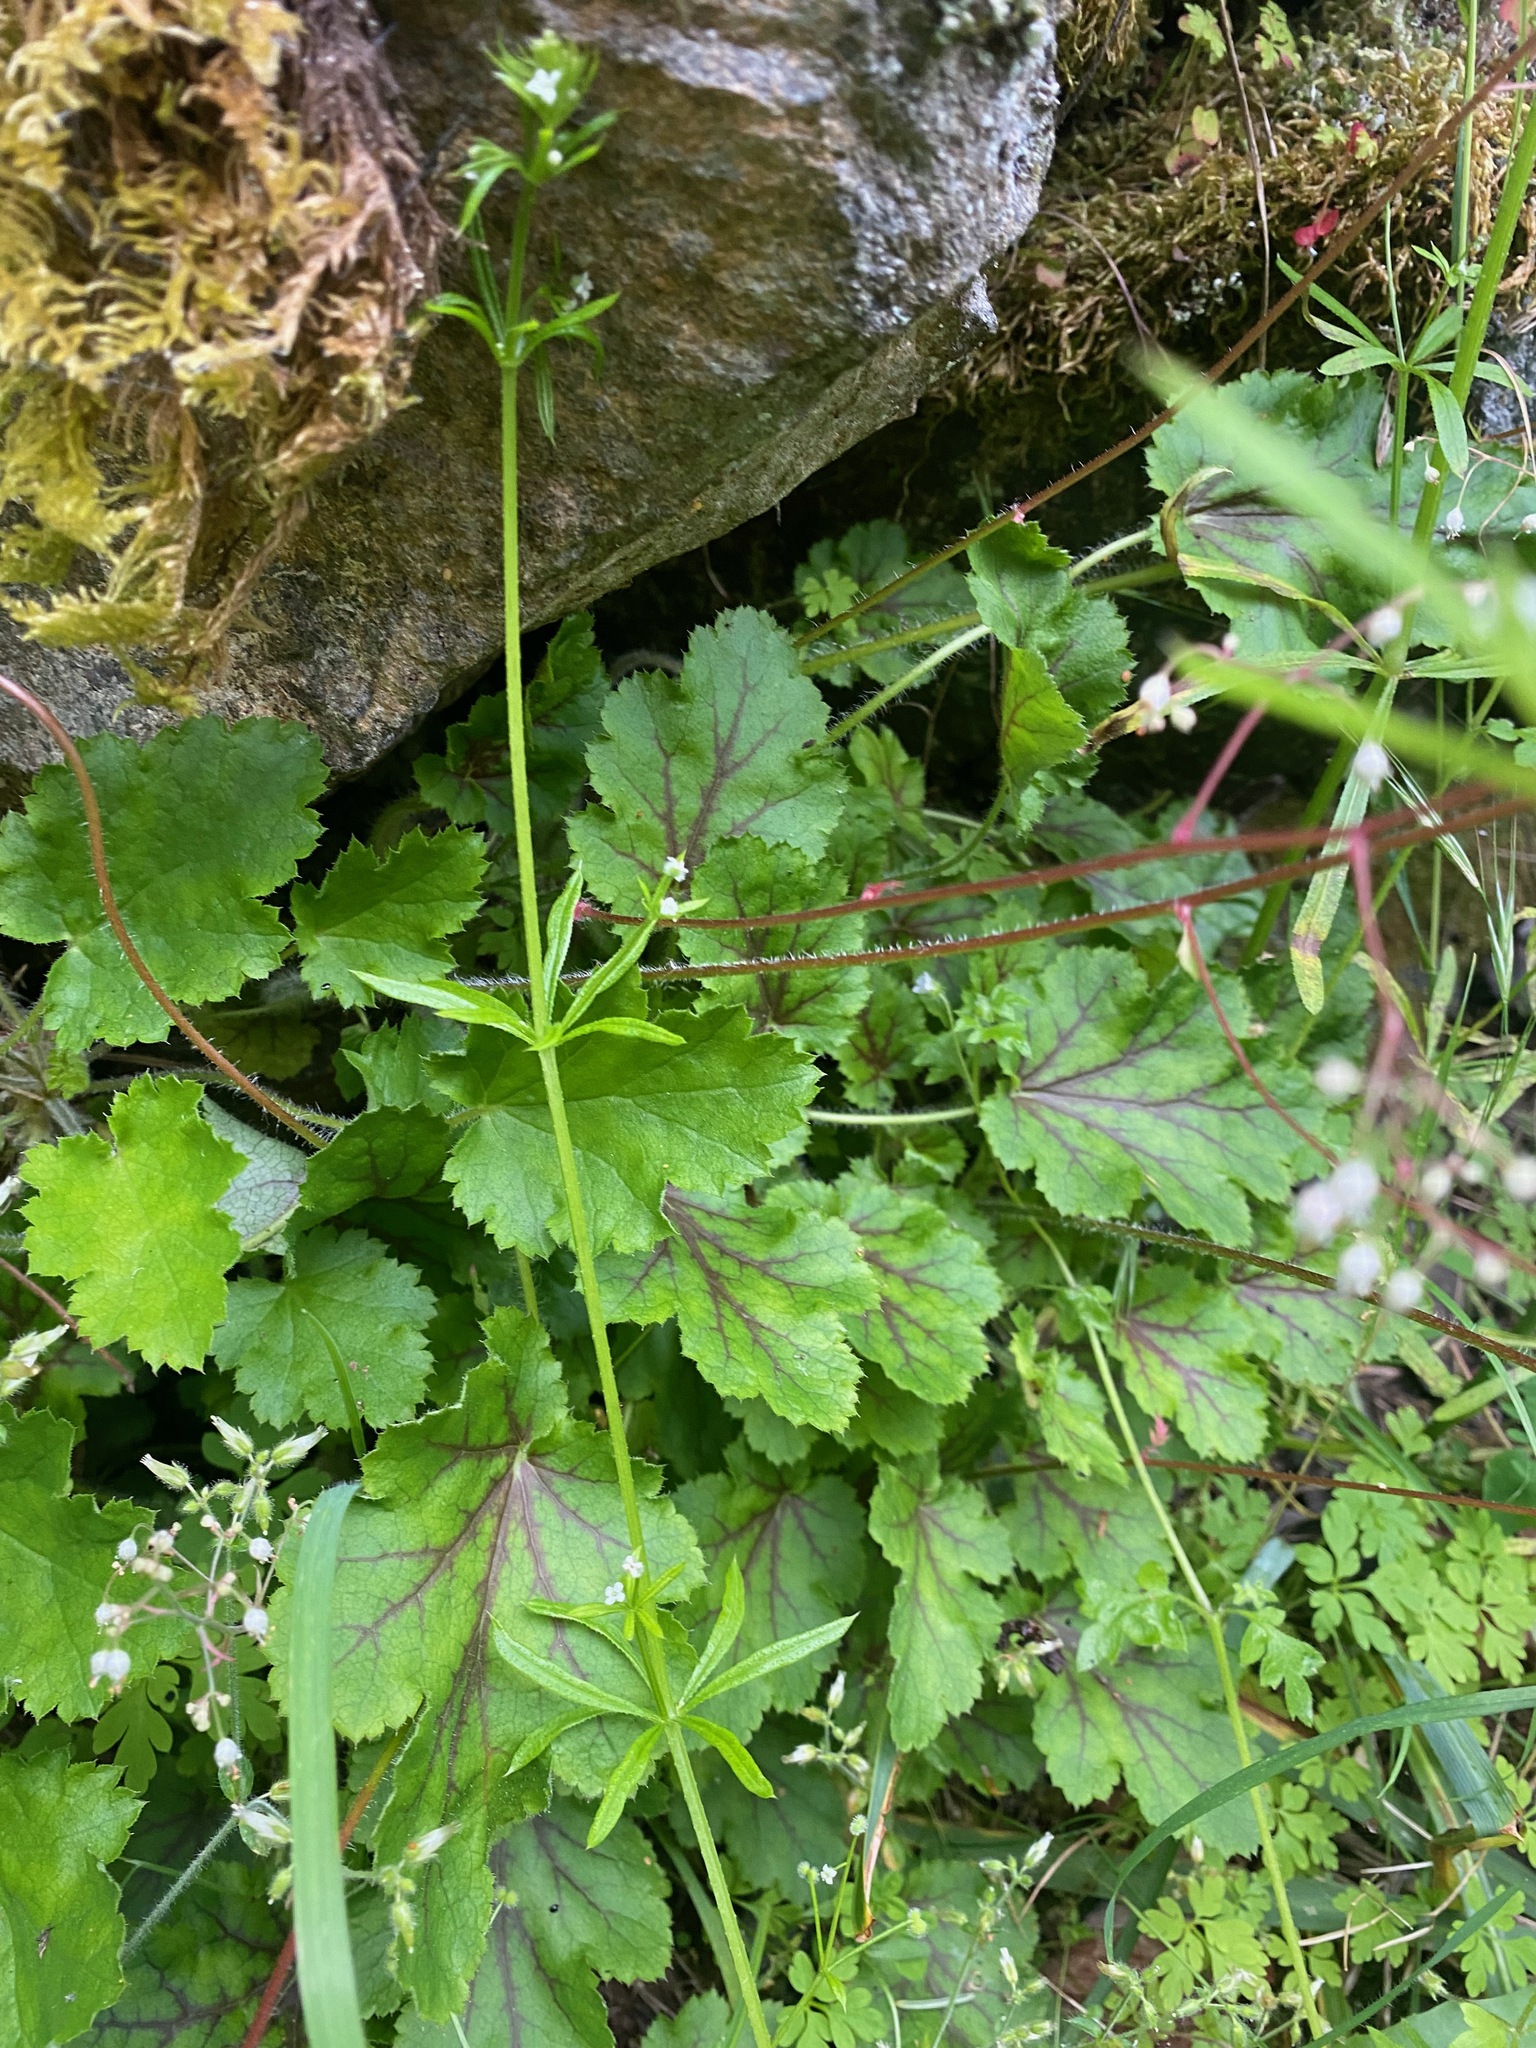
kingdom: Plantae
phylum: Tracheophyta
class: Magnoliopsida
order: Saxifragales
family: Saxifragaceae
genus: Heuchera
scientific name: Heuchera micrantha
